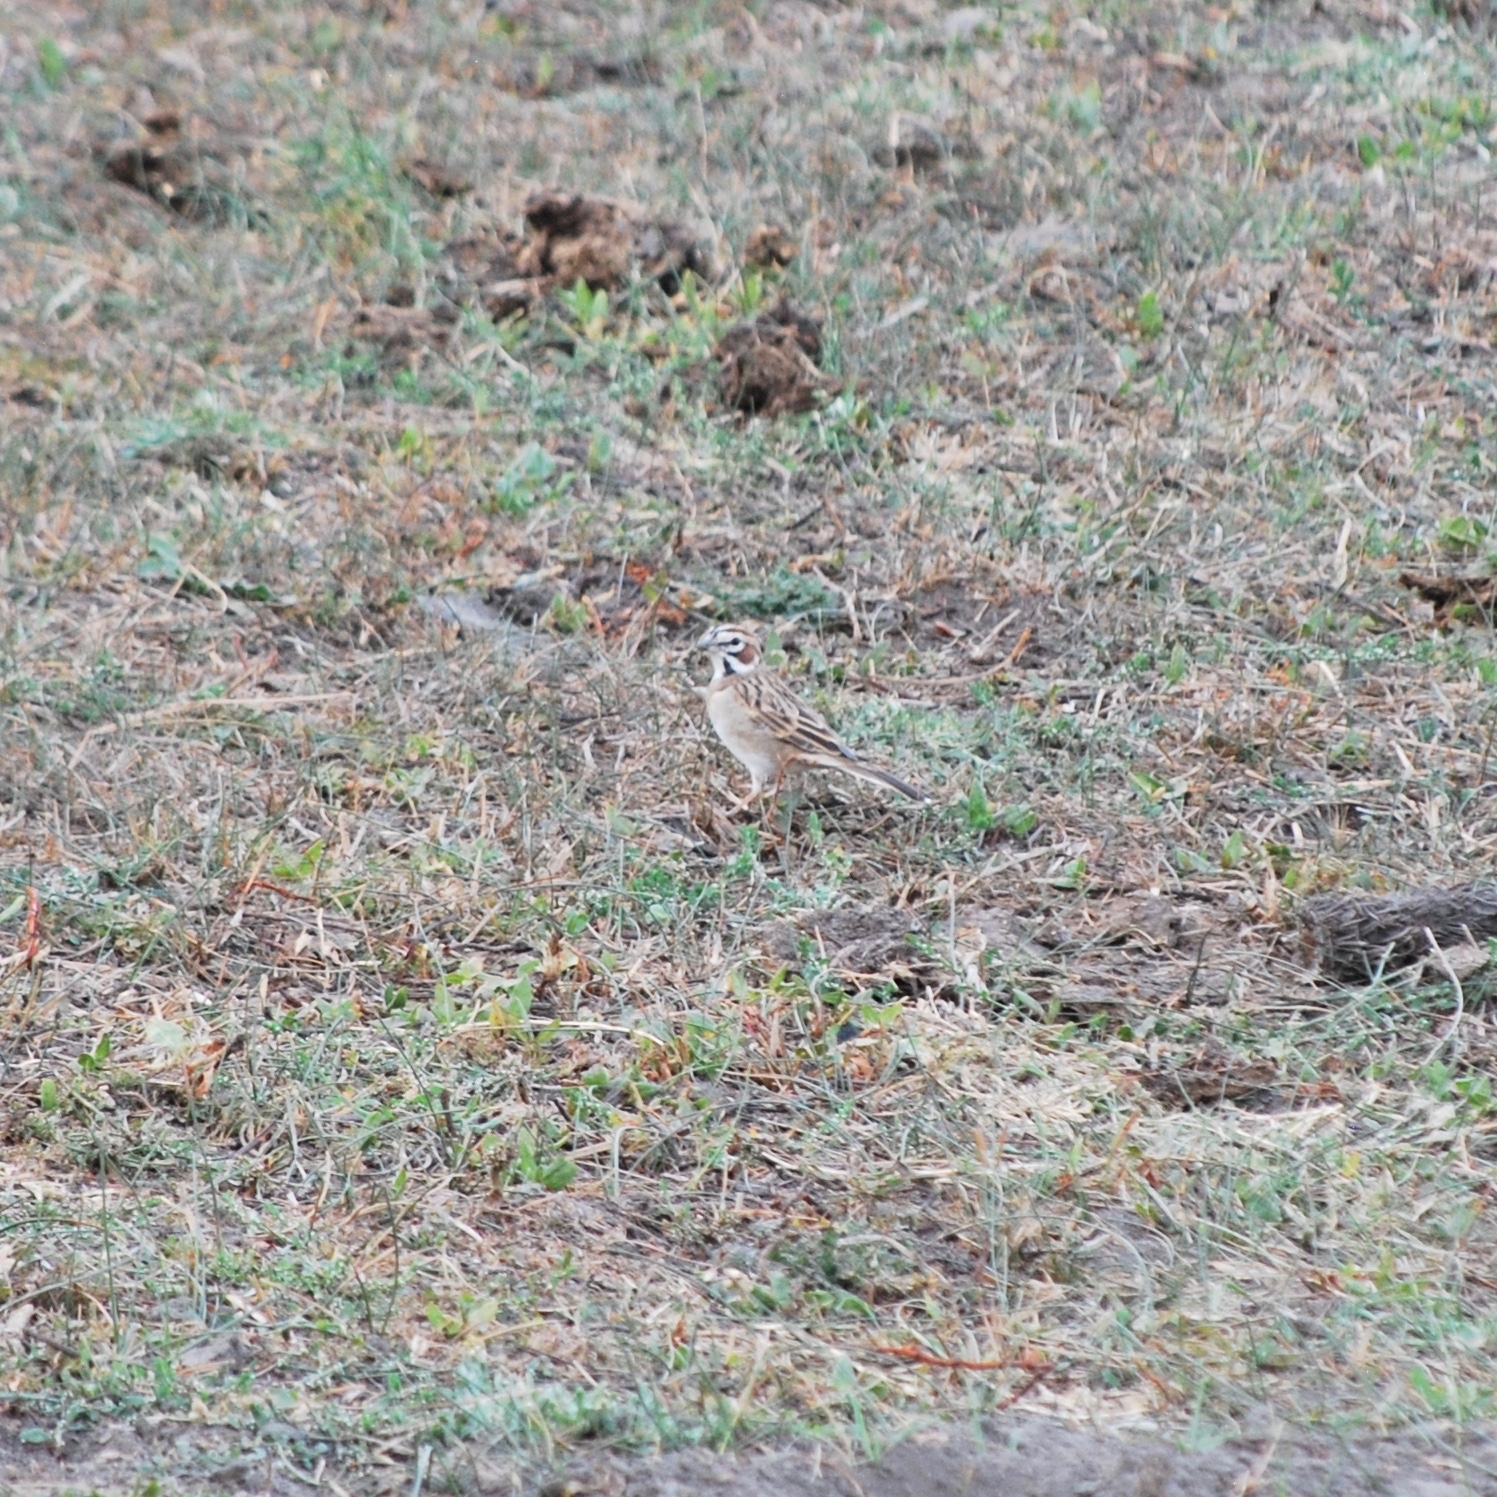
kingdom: Animalia
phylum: Chordata
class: Aves
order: Passeriformes
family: Passerellidae
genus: Chondestes
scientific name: Chondestes grammacus
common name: Lark sparrow
